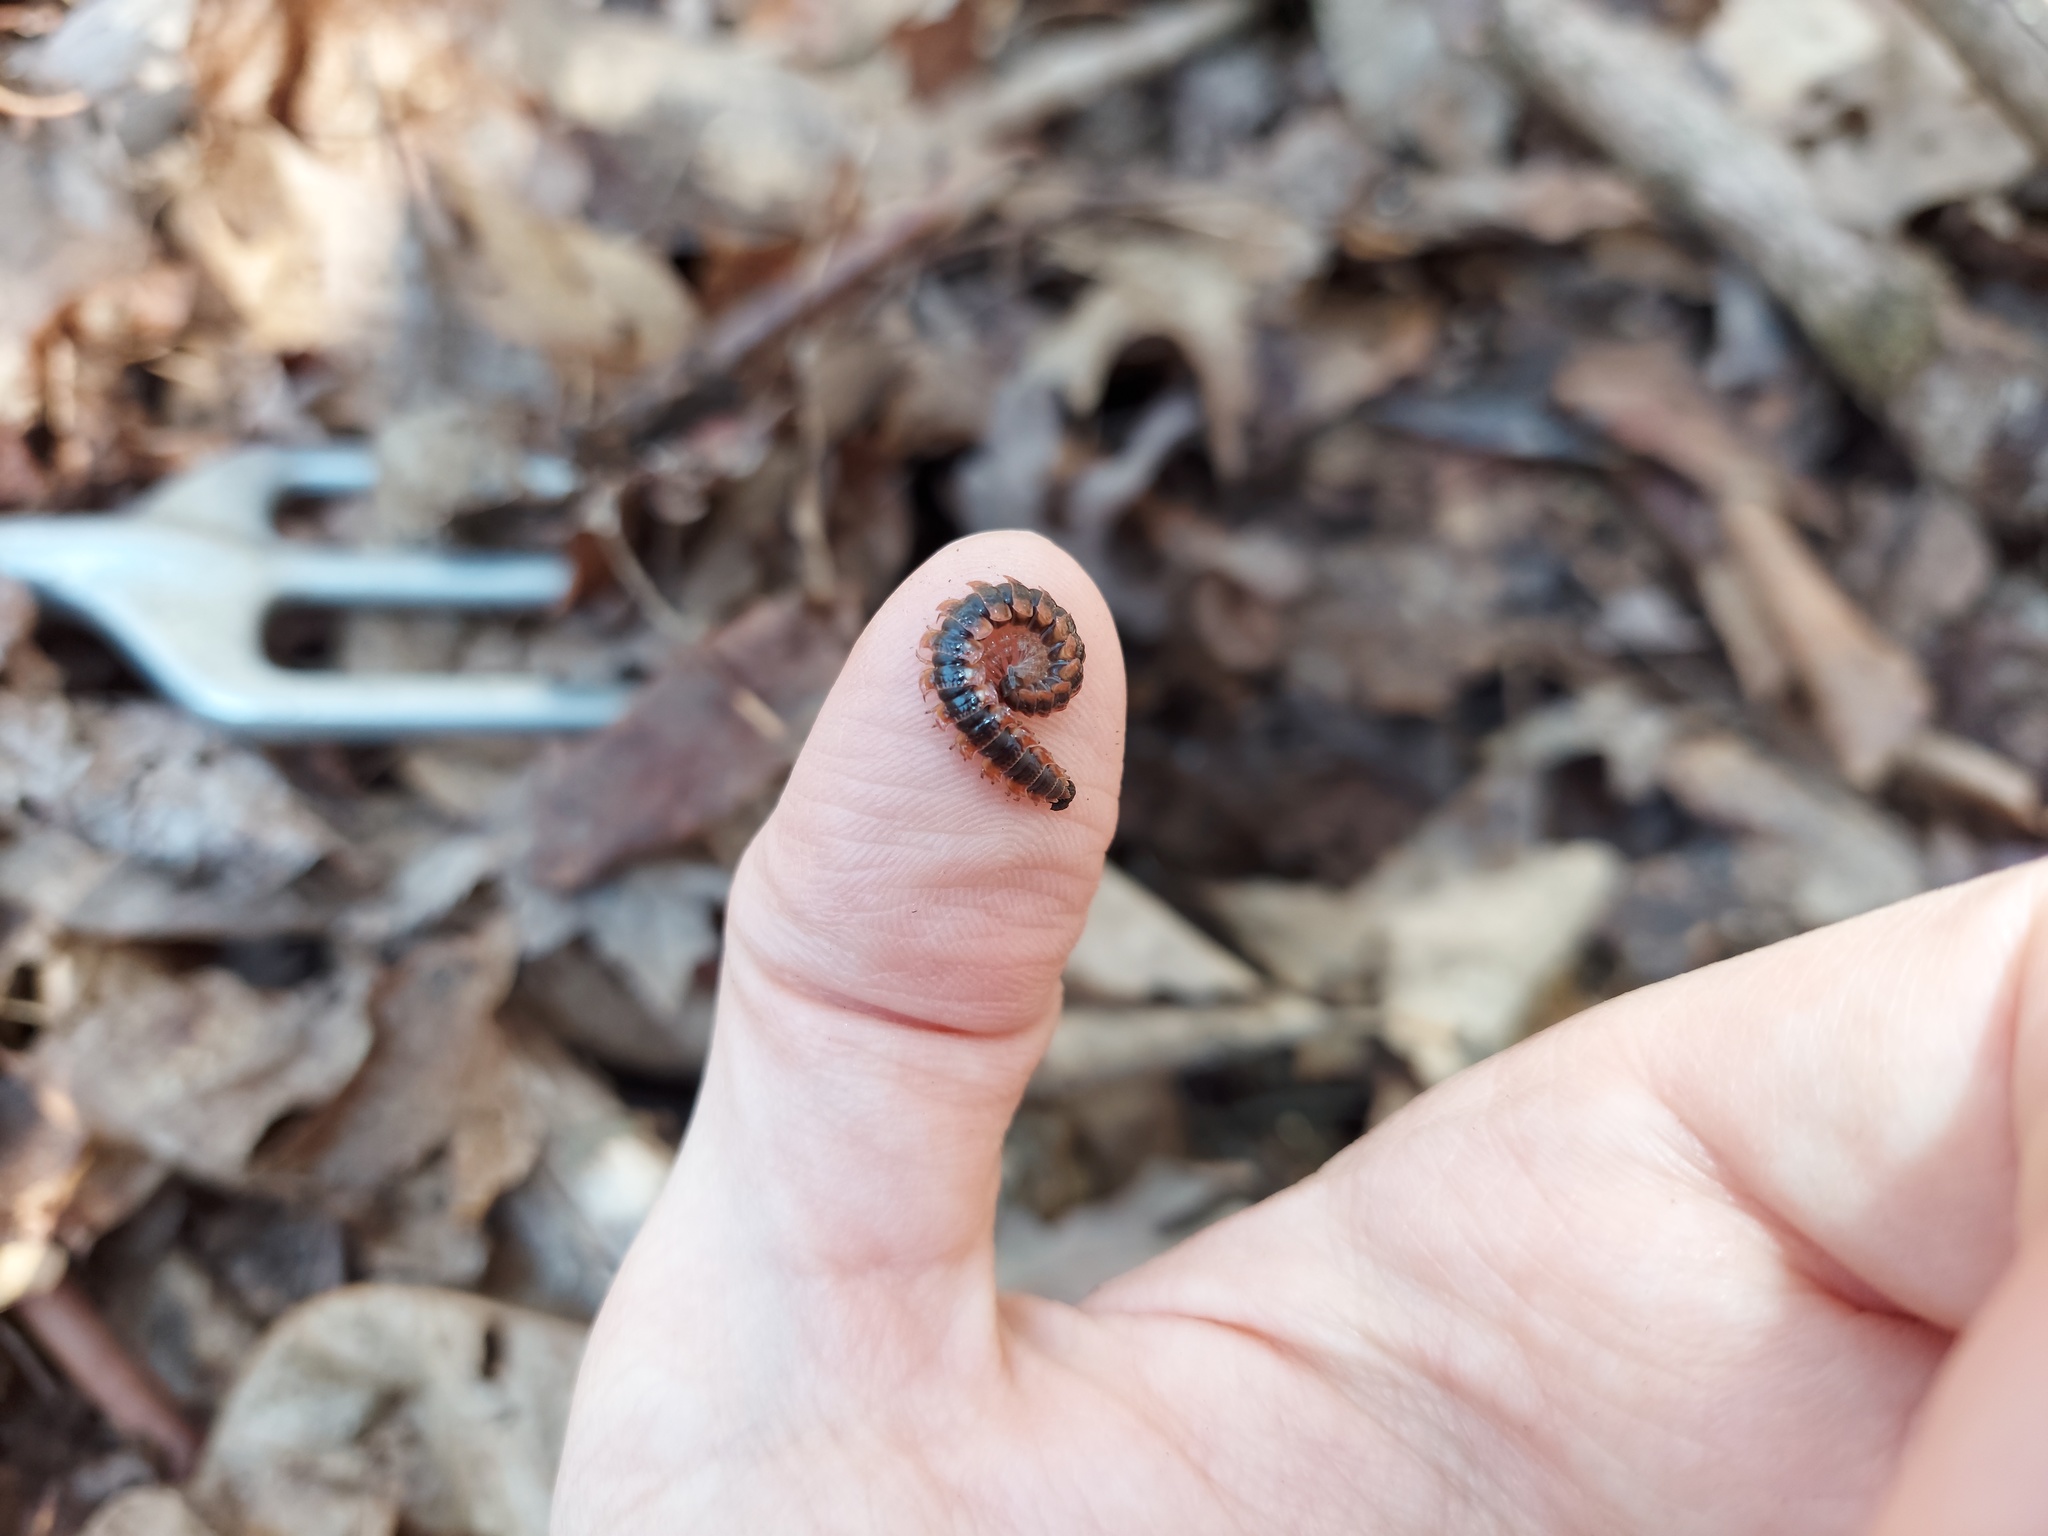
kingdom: Animalia
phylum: Arthropoda
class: Diplopoda
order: Polydesmida
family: Polydesmidae
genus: Pseudopolydesmus
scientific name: Pseudopolydesmus canadensis
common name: Canadian flat-back millipede
